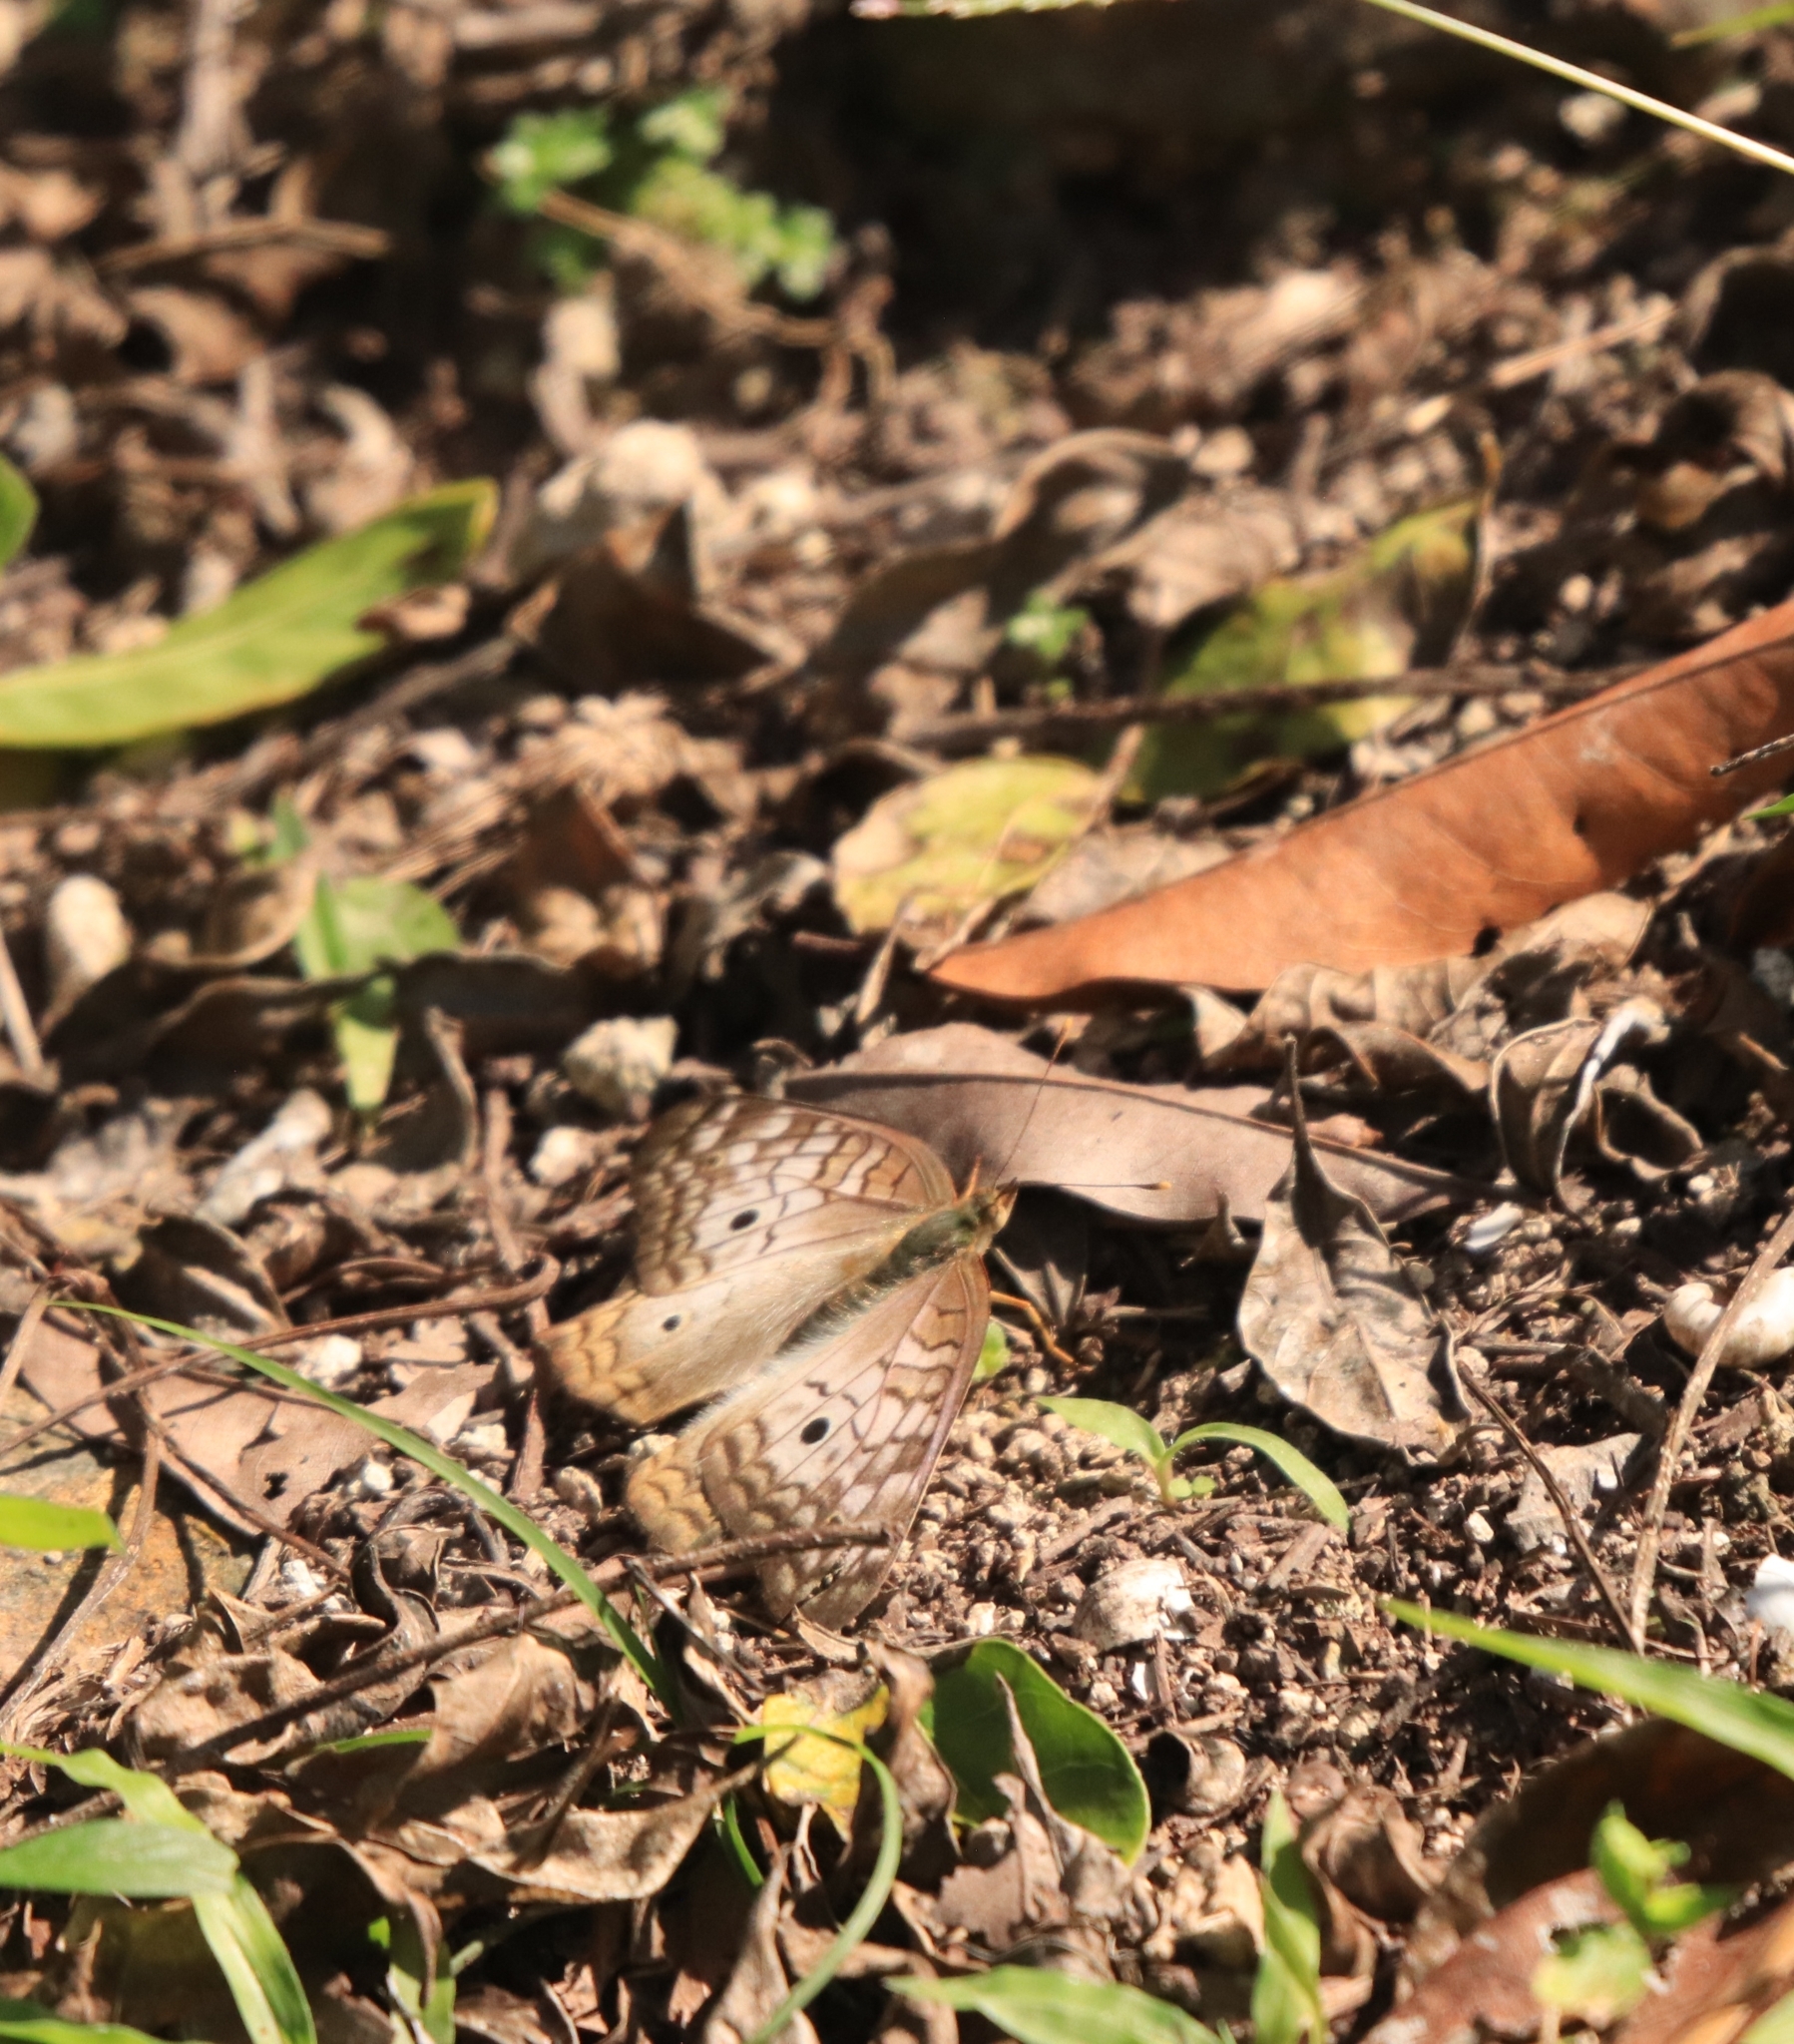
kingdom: Animalia
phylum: Arthropoda
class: Insecta
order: Lepidoptera
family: Nymphalidae
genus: Anartia
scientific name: Anartia jatrophae
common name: White peacock
